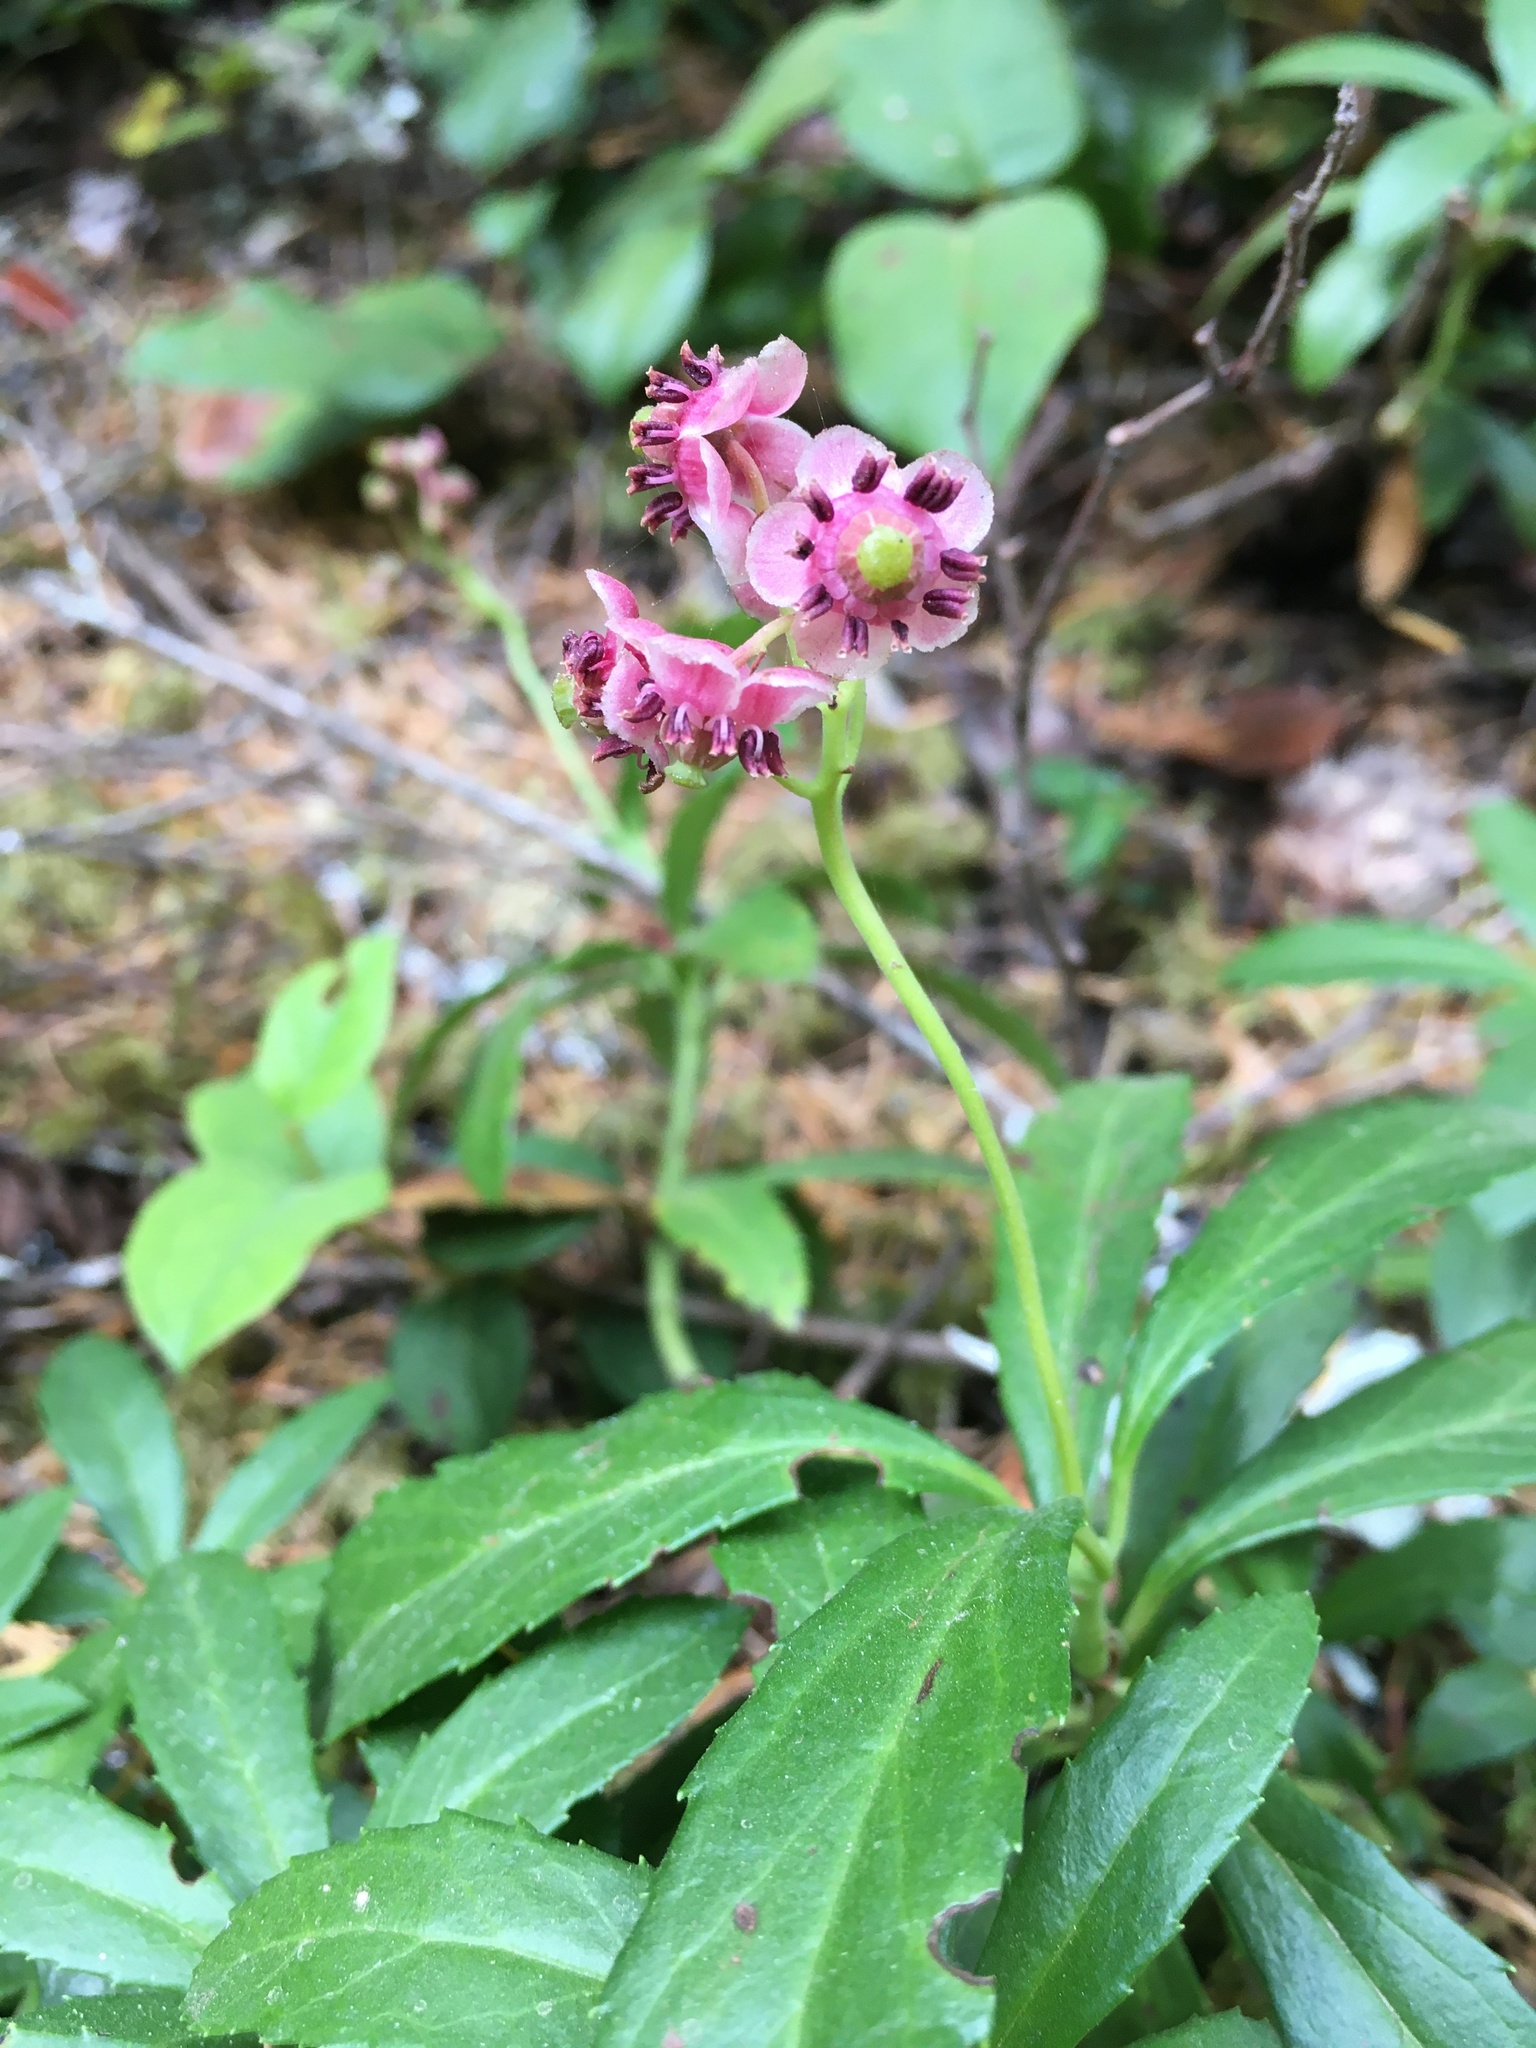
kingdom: Plantae
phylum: Tracheophyta
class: Magnoliopsida
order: Ericales
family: Ericaceae
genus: Chimaphila
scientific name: Chimaphila umbellata
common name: Pipsissewa
